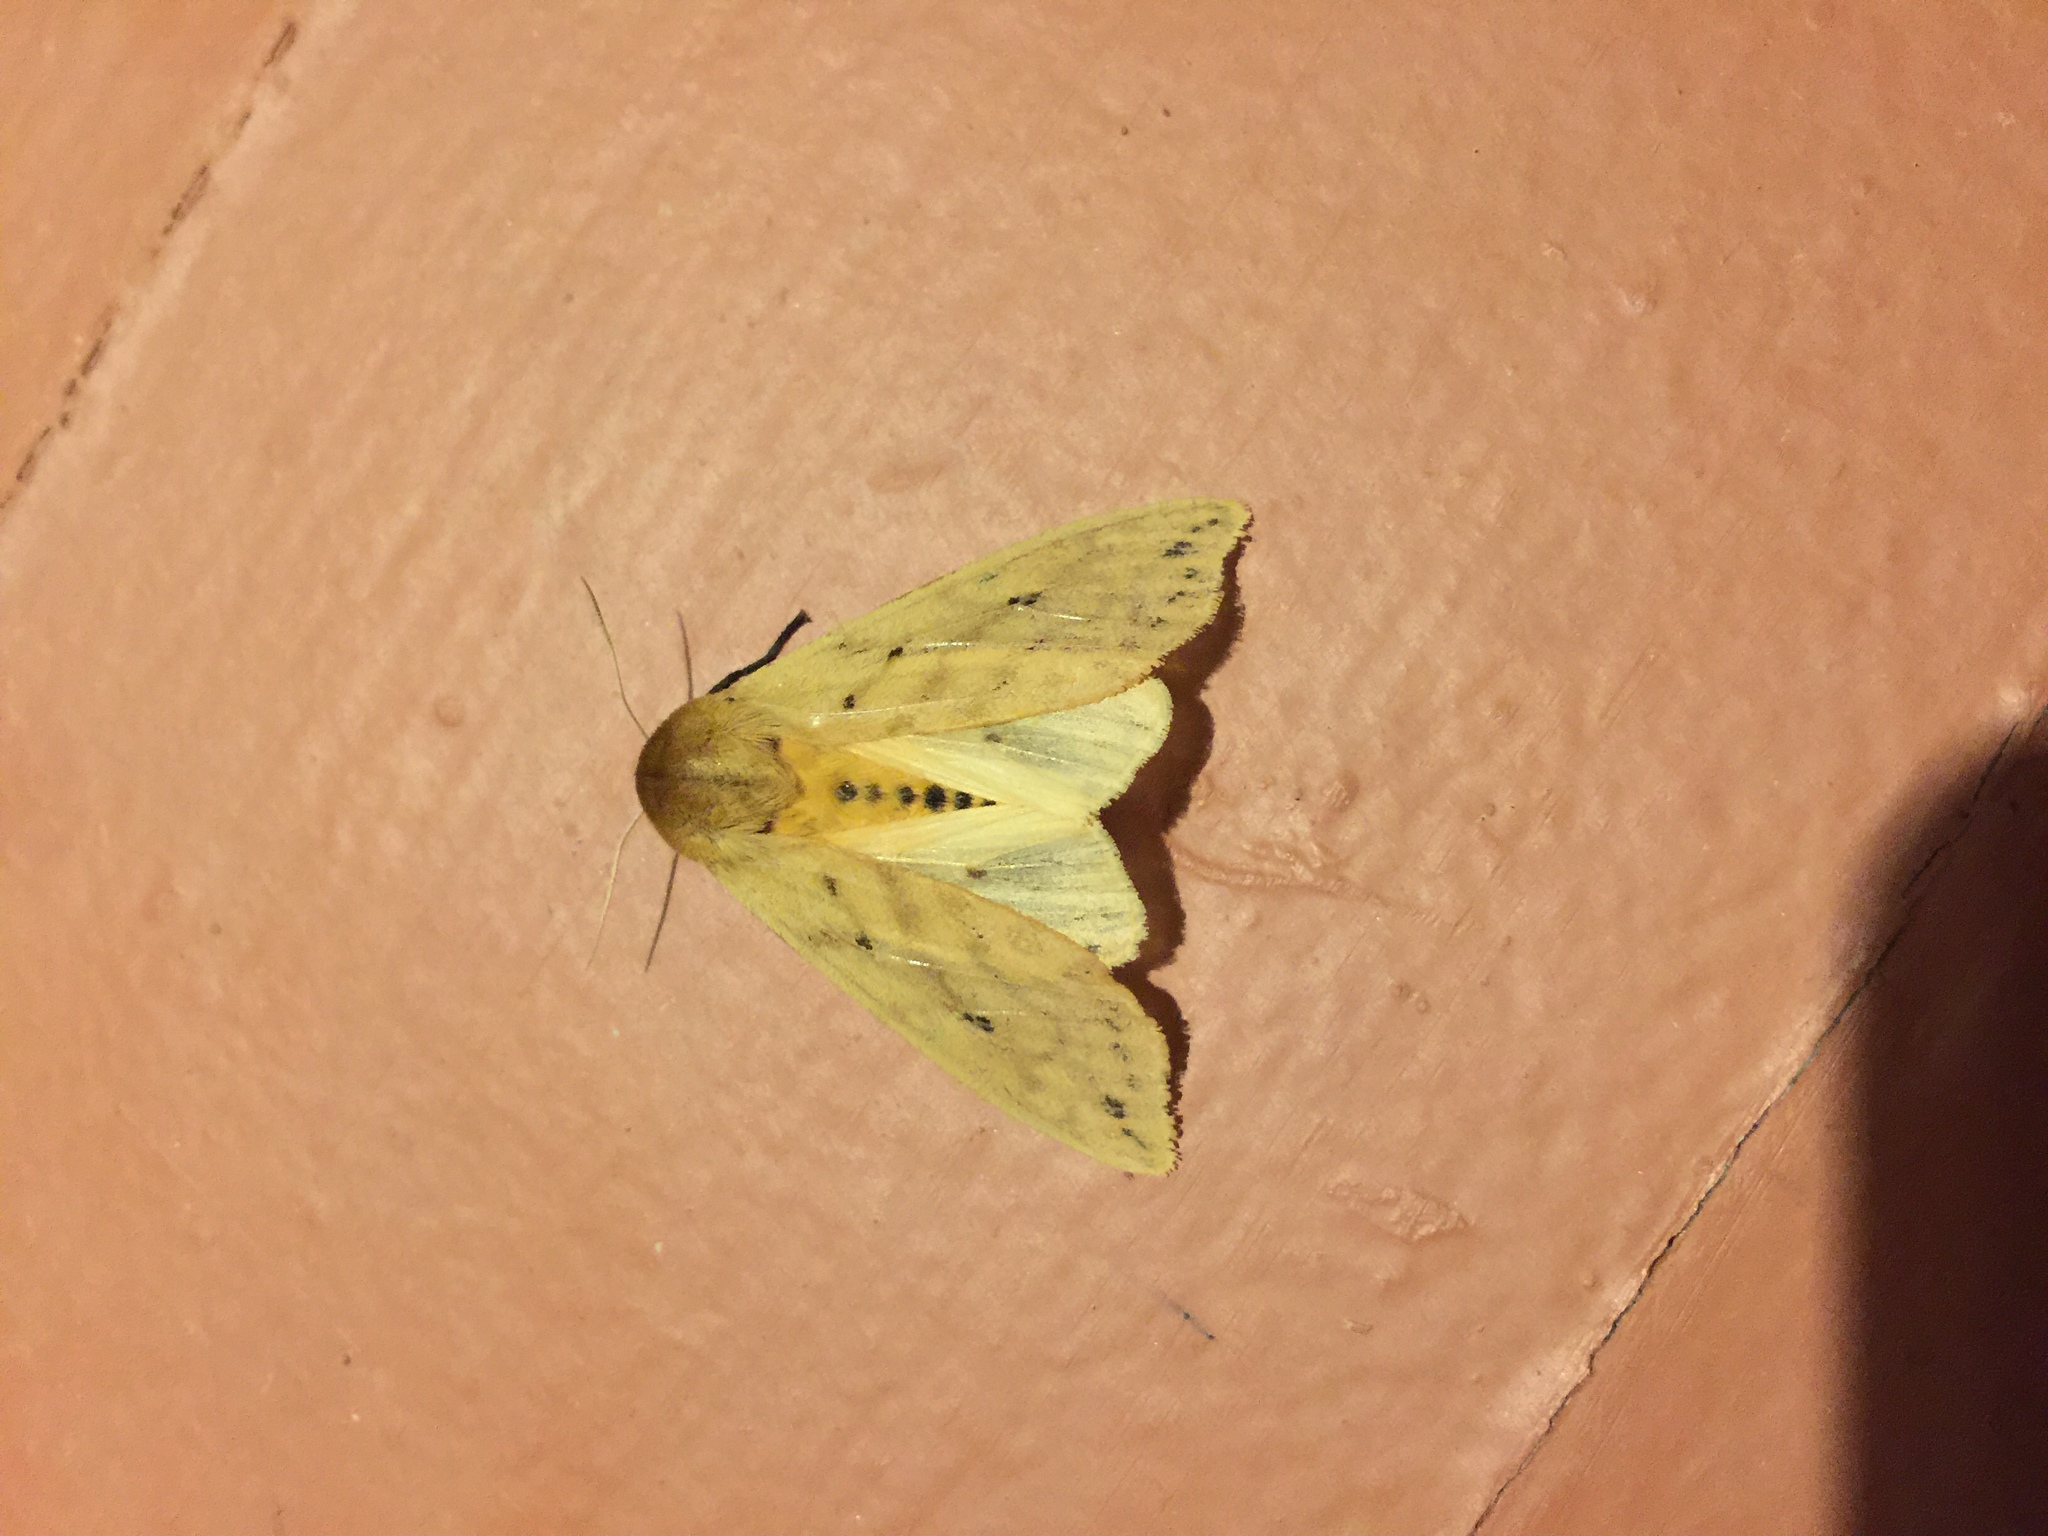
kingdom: Animalia
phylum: Arthropoda
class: Insecta
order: Lepidoptera
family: Erebidae
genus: Pyrrharctia
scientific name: Pyrrharctia isabella
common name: Isabella tiger moth
